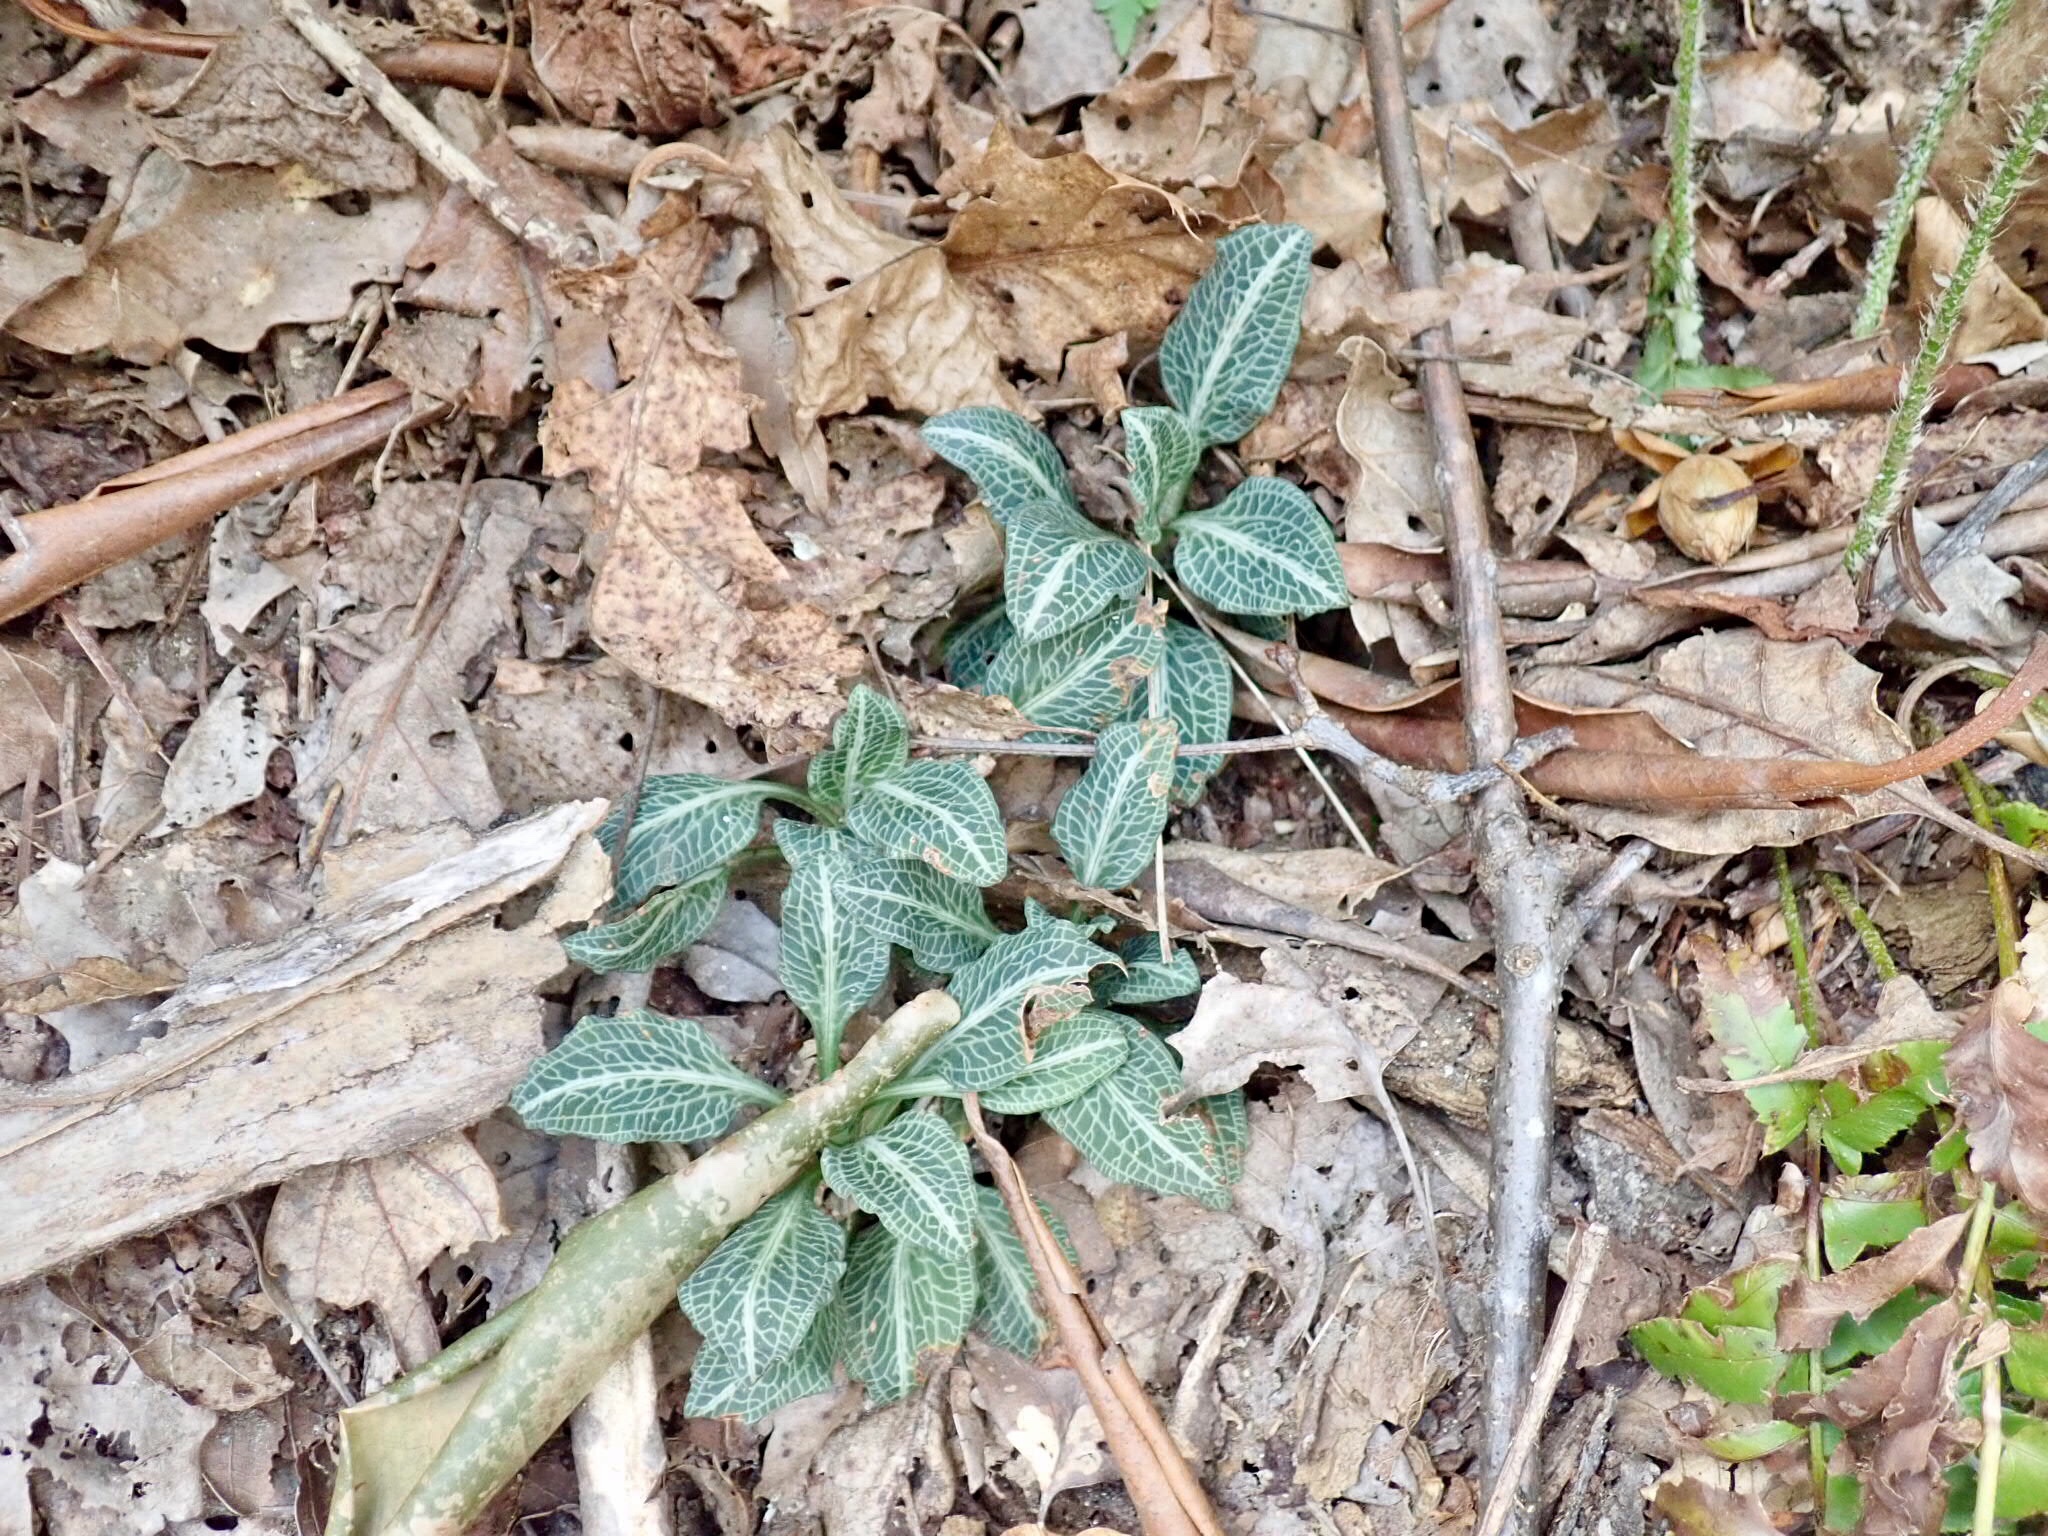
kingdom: Plantae
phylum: Tracheophyta
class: Liliopsida
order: Asparagales
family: Orchidaceae
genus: Goodyera
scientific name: Goodyera pubescens
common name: Downy rattlesnake-plantain
